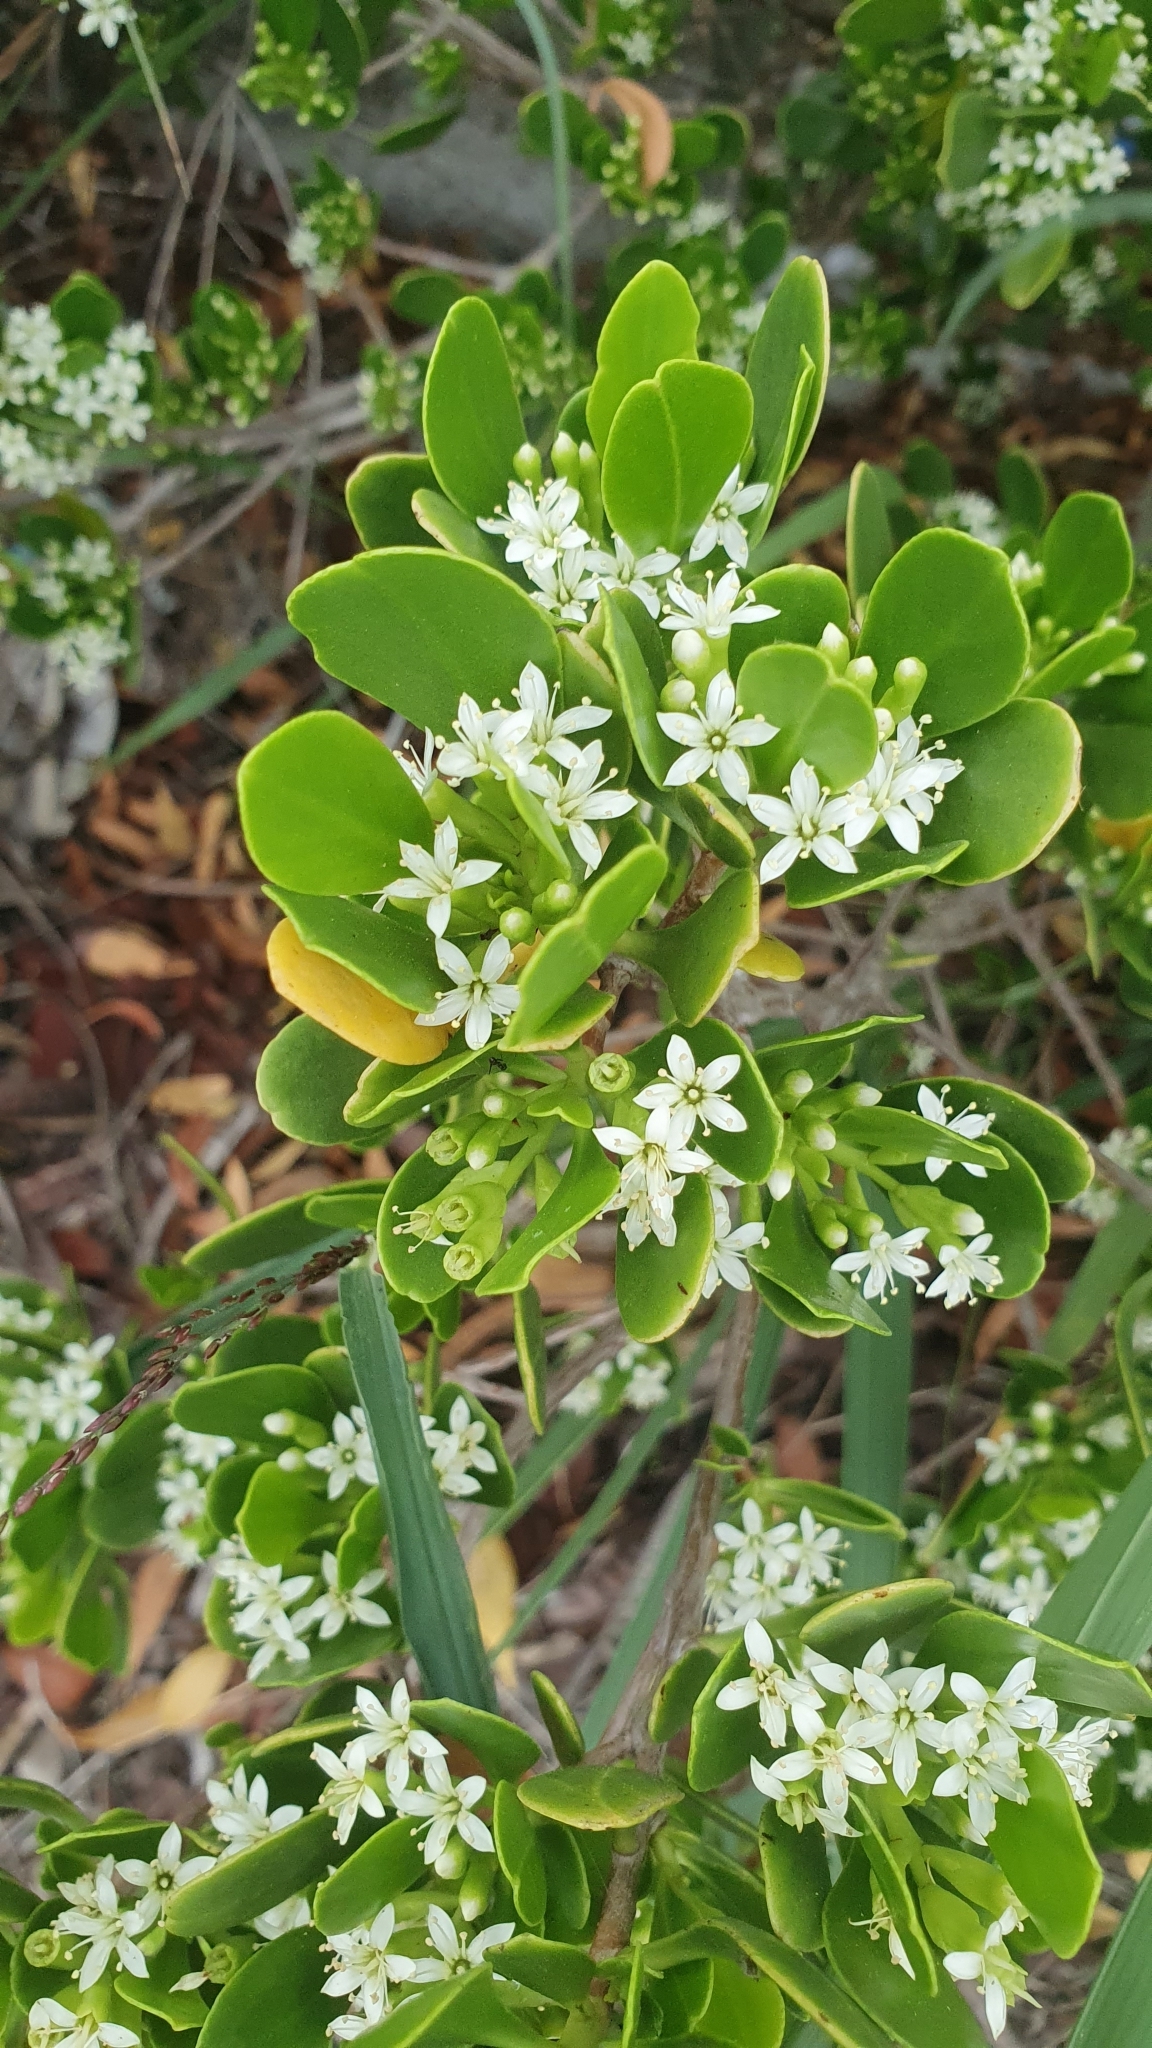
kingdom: Plantae
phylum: Tracheophyta
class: Magnoliopsida
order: Myrtales
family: Combretaceae
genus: Lumnitzera
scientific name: Lumnitzera racemosa
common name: White-flowered black mangrove
